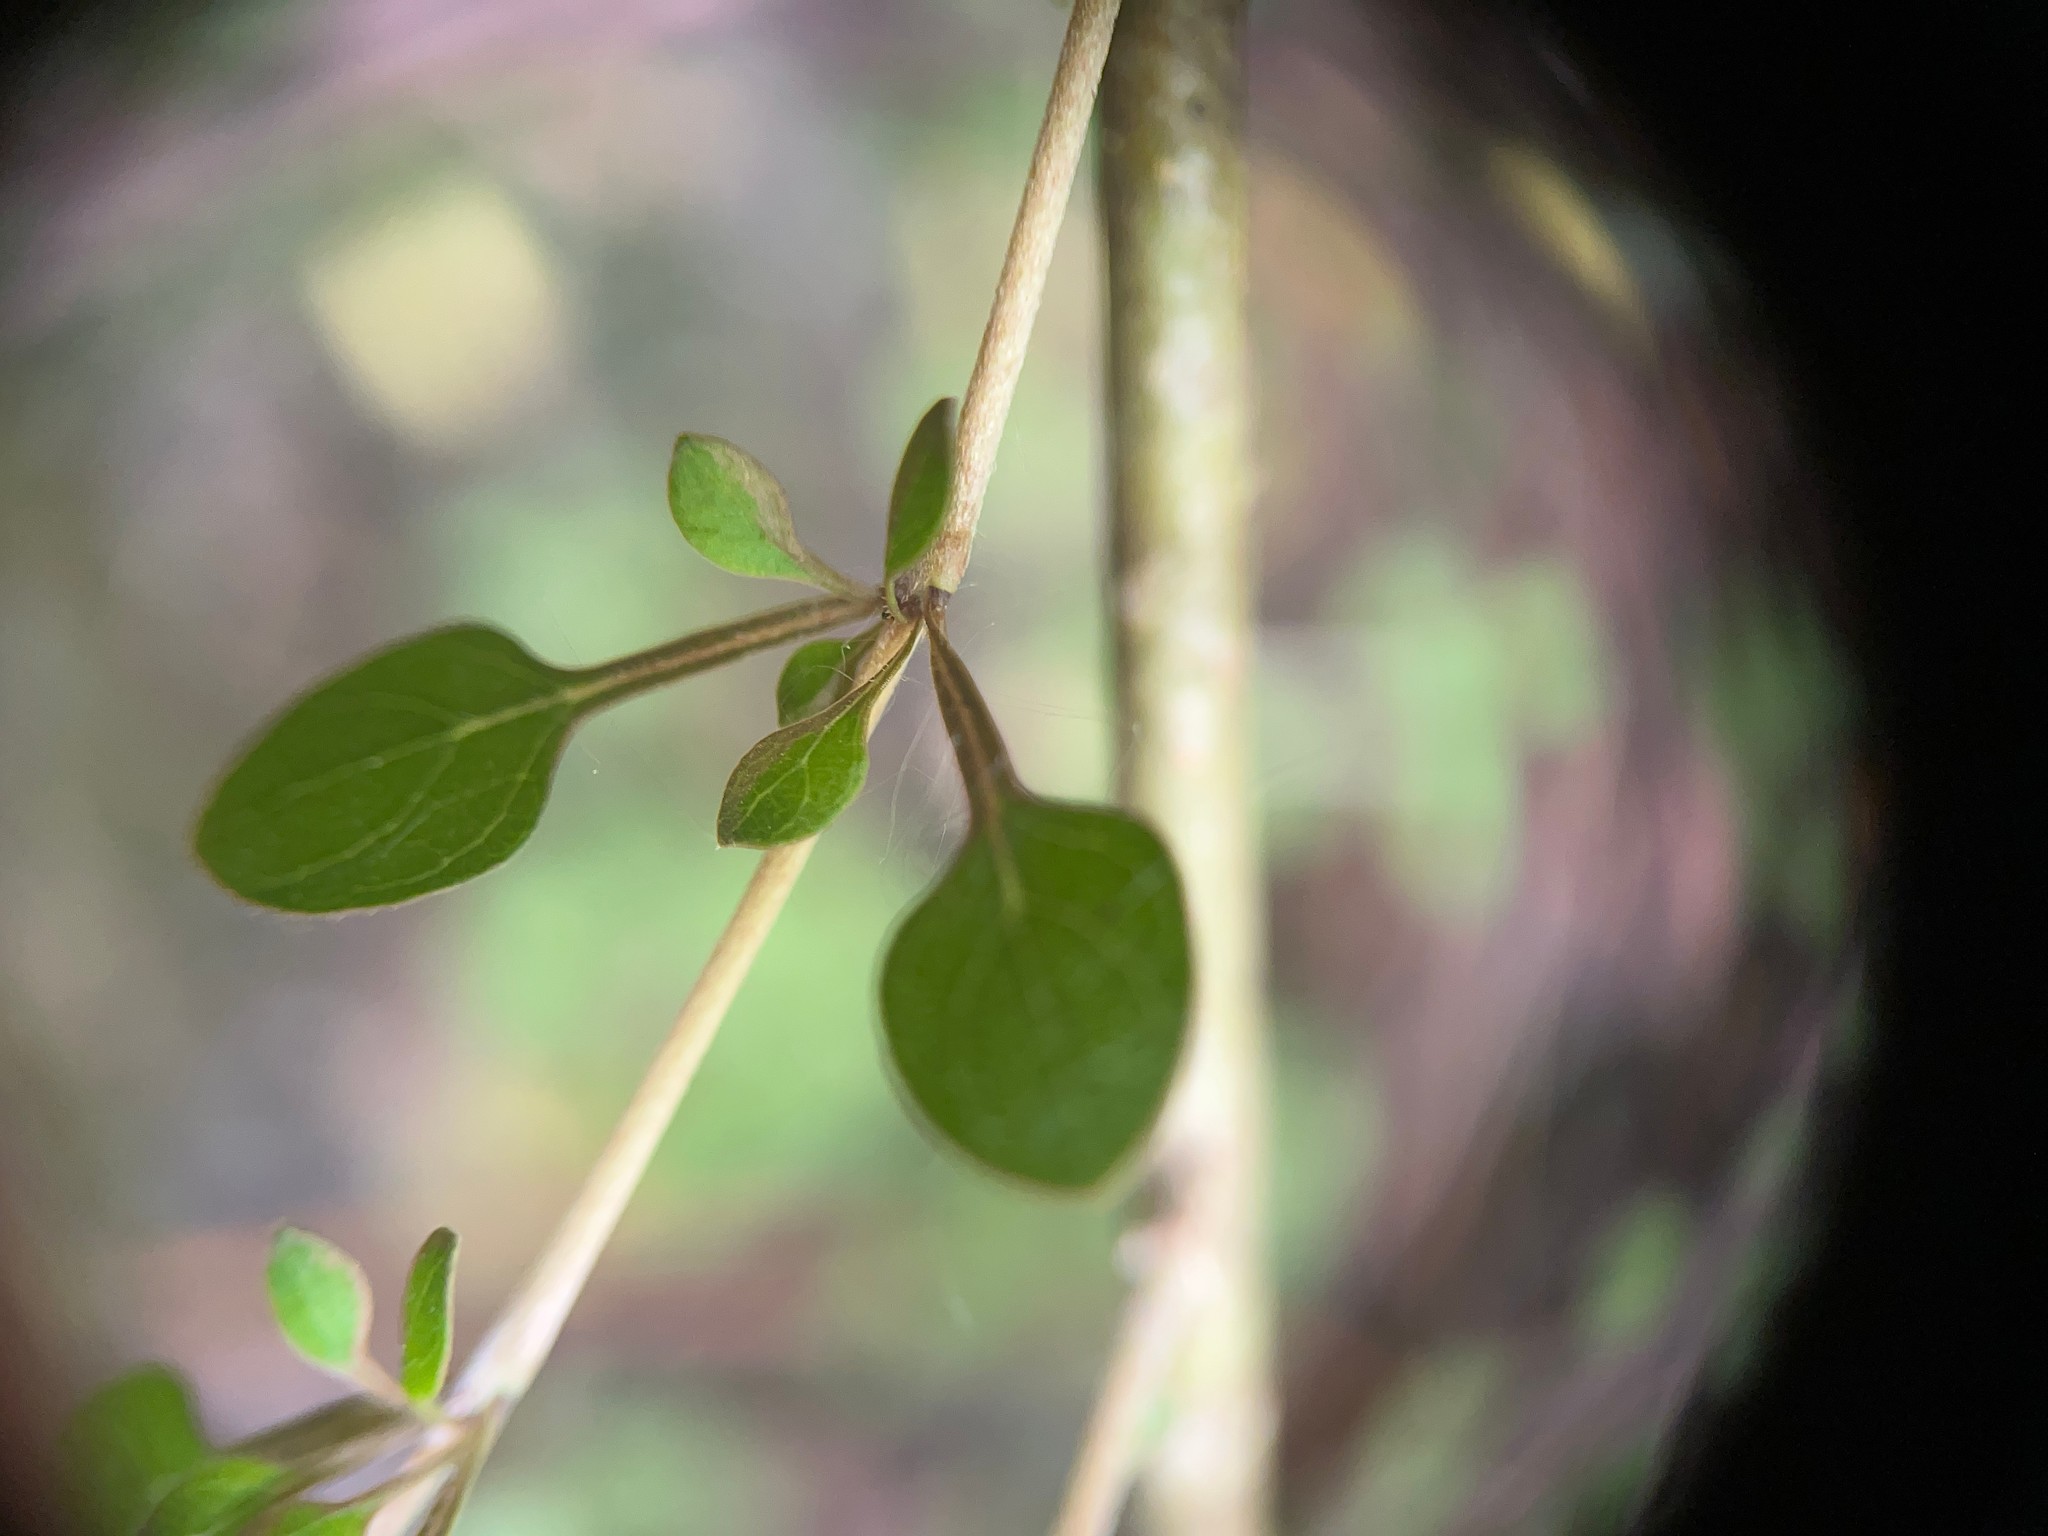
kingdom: Plantae
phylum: Tracheophyta
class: Magnoliopsida
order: Gentianales
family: Rubiaceae
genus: Coprosma
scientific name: Coprosma virescens
